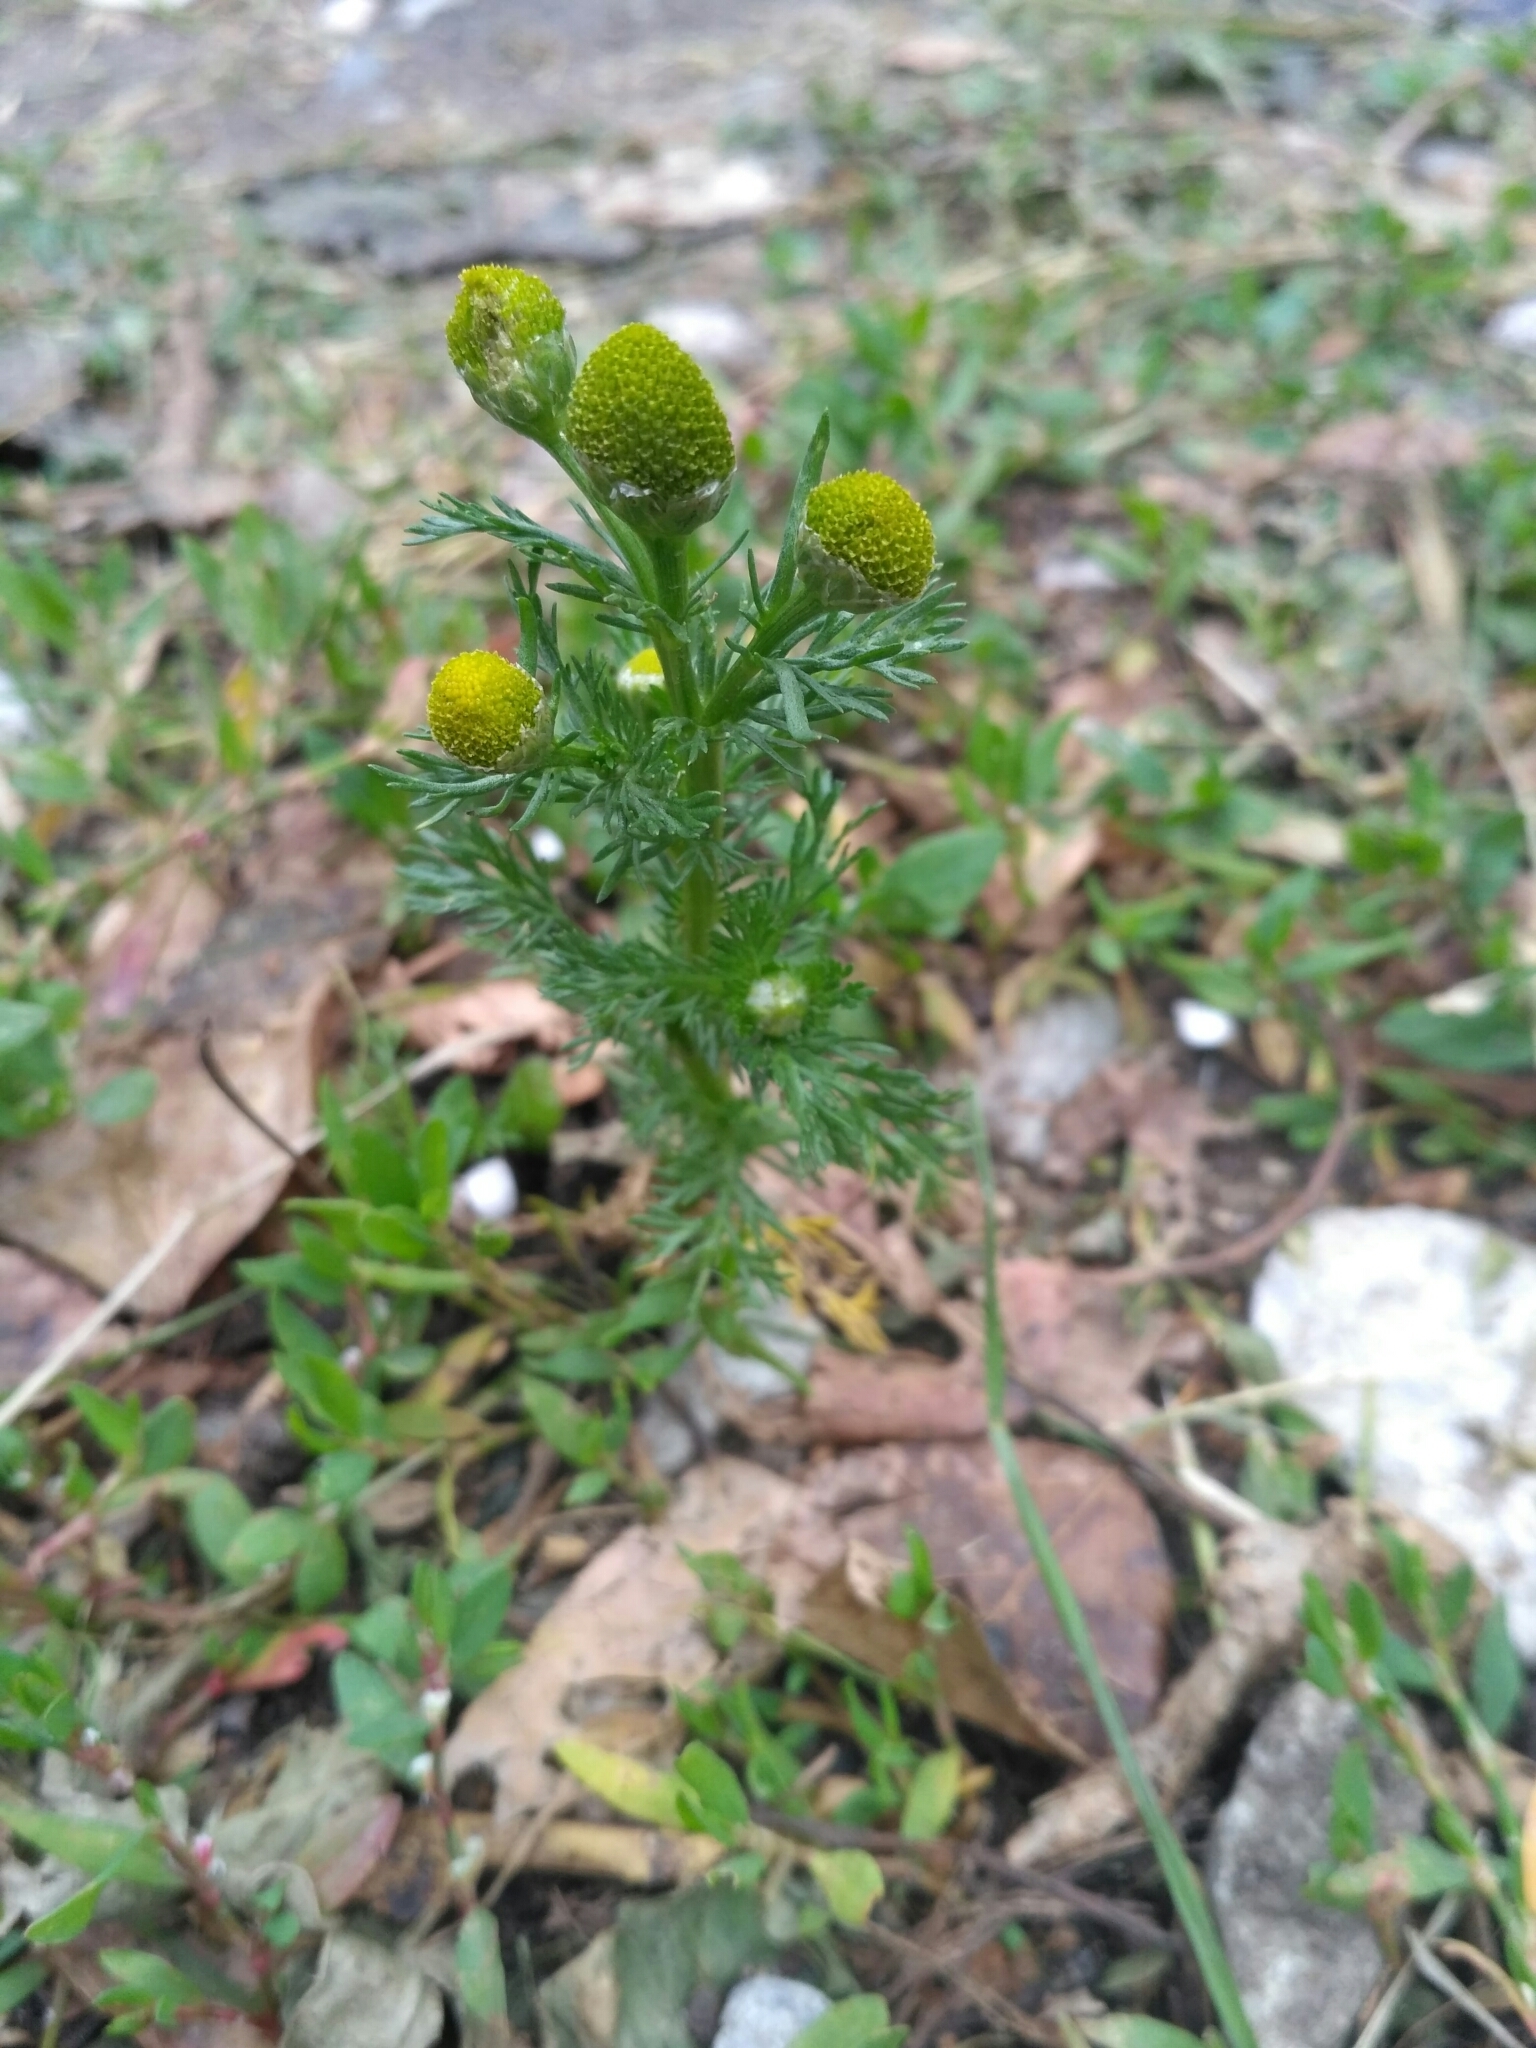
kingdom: Plantae
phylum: Tracheophyta
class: Magnoliopsida
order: Asterales
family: Asteraceae
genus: Matricaria
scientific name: Matricaria discoidea
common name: Disc mayweed
